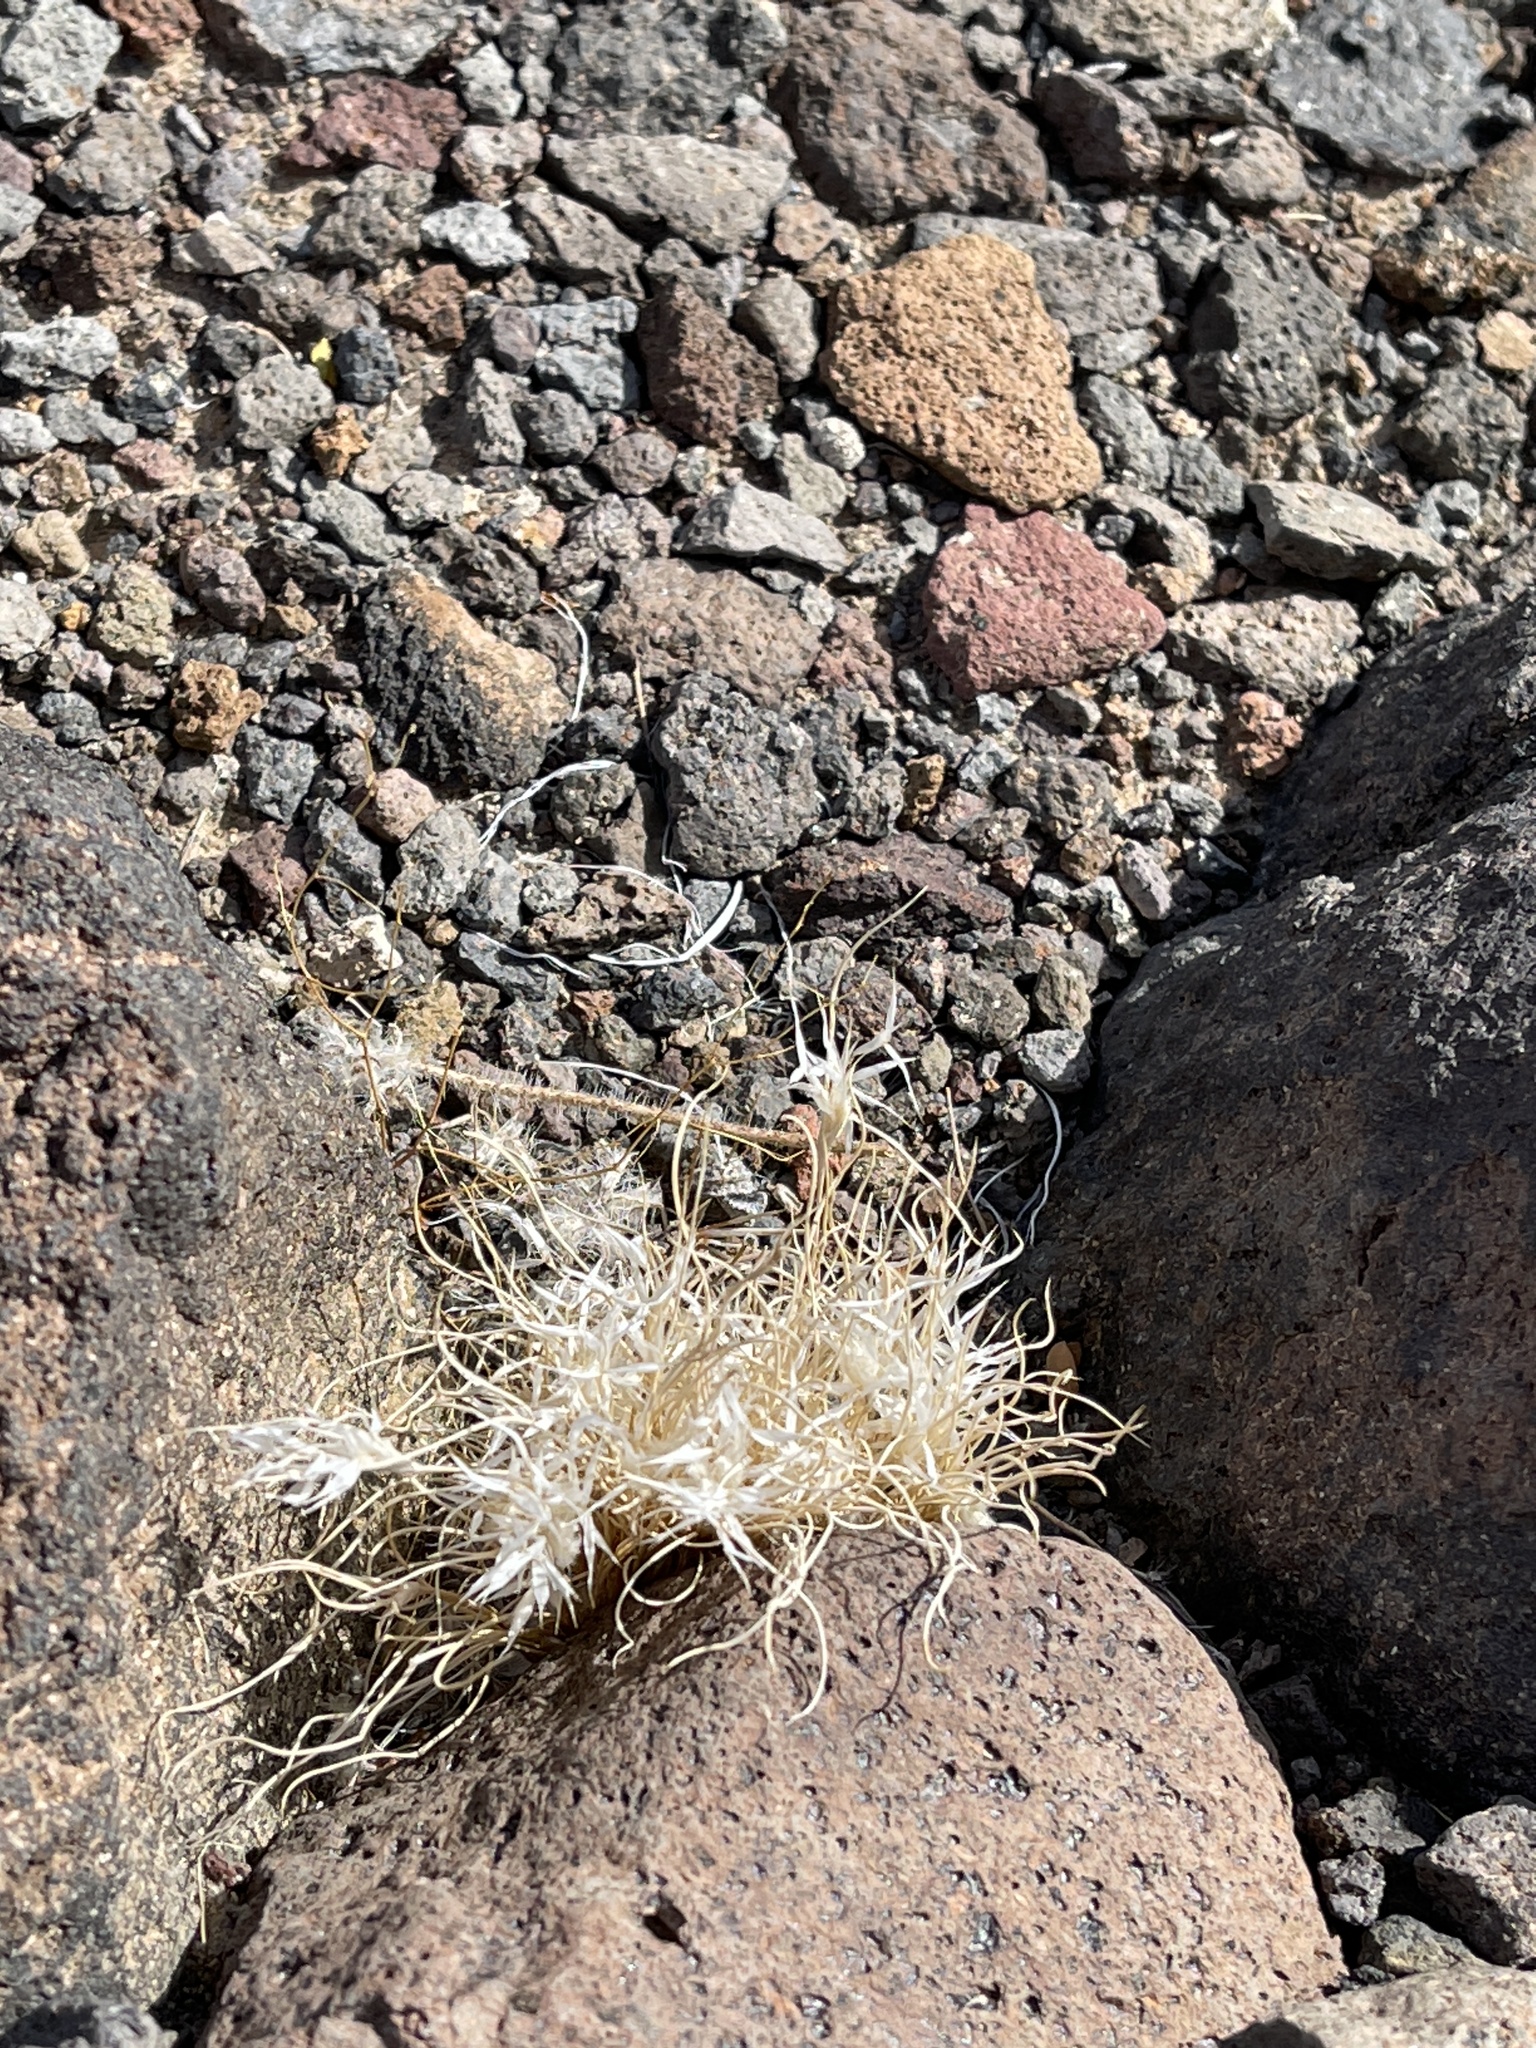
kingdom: Plantae
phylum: Tracheophyta
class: Liliopsida
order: Poales
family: Poaceae
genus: Dasyochloa
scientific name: Dasyochloa pulchella
